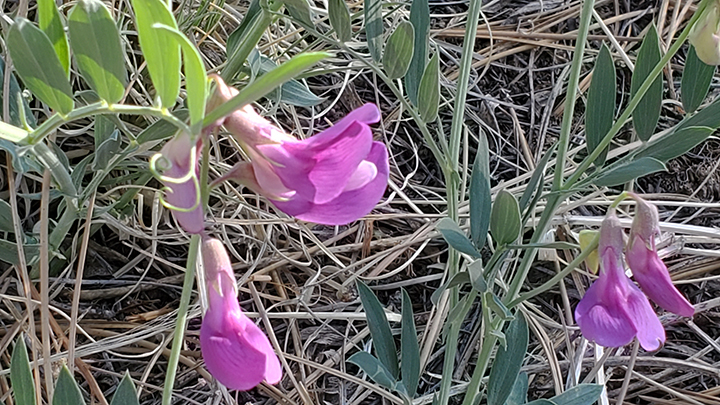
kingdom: Plantae
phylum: Tracheophyta
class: Magnoliopsida
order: Fabales
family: Fabaceae
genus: Lathyrus
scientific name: Lathyrus eucosmus
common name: Semmly vetchling
